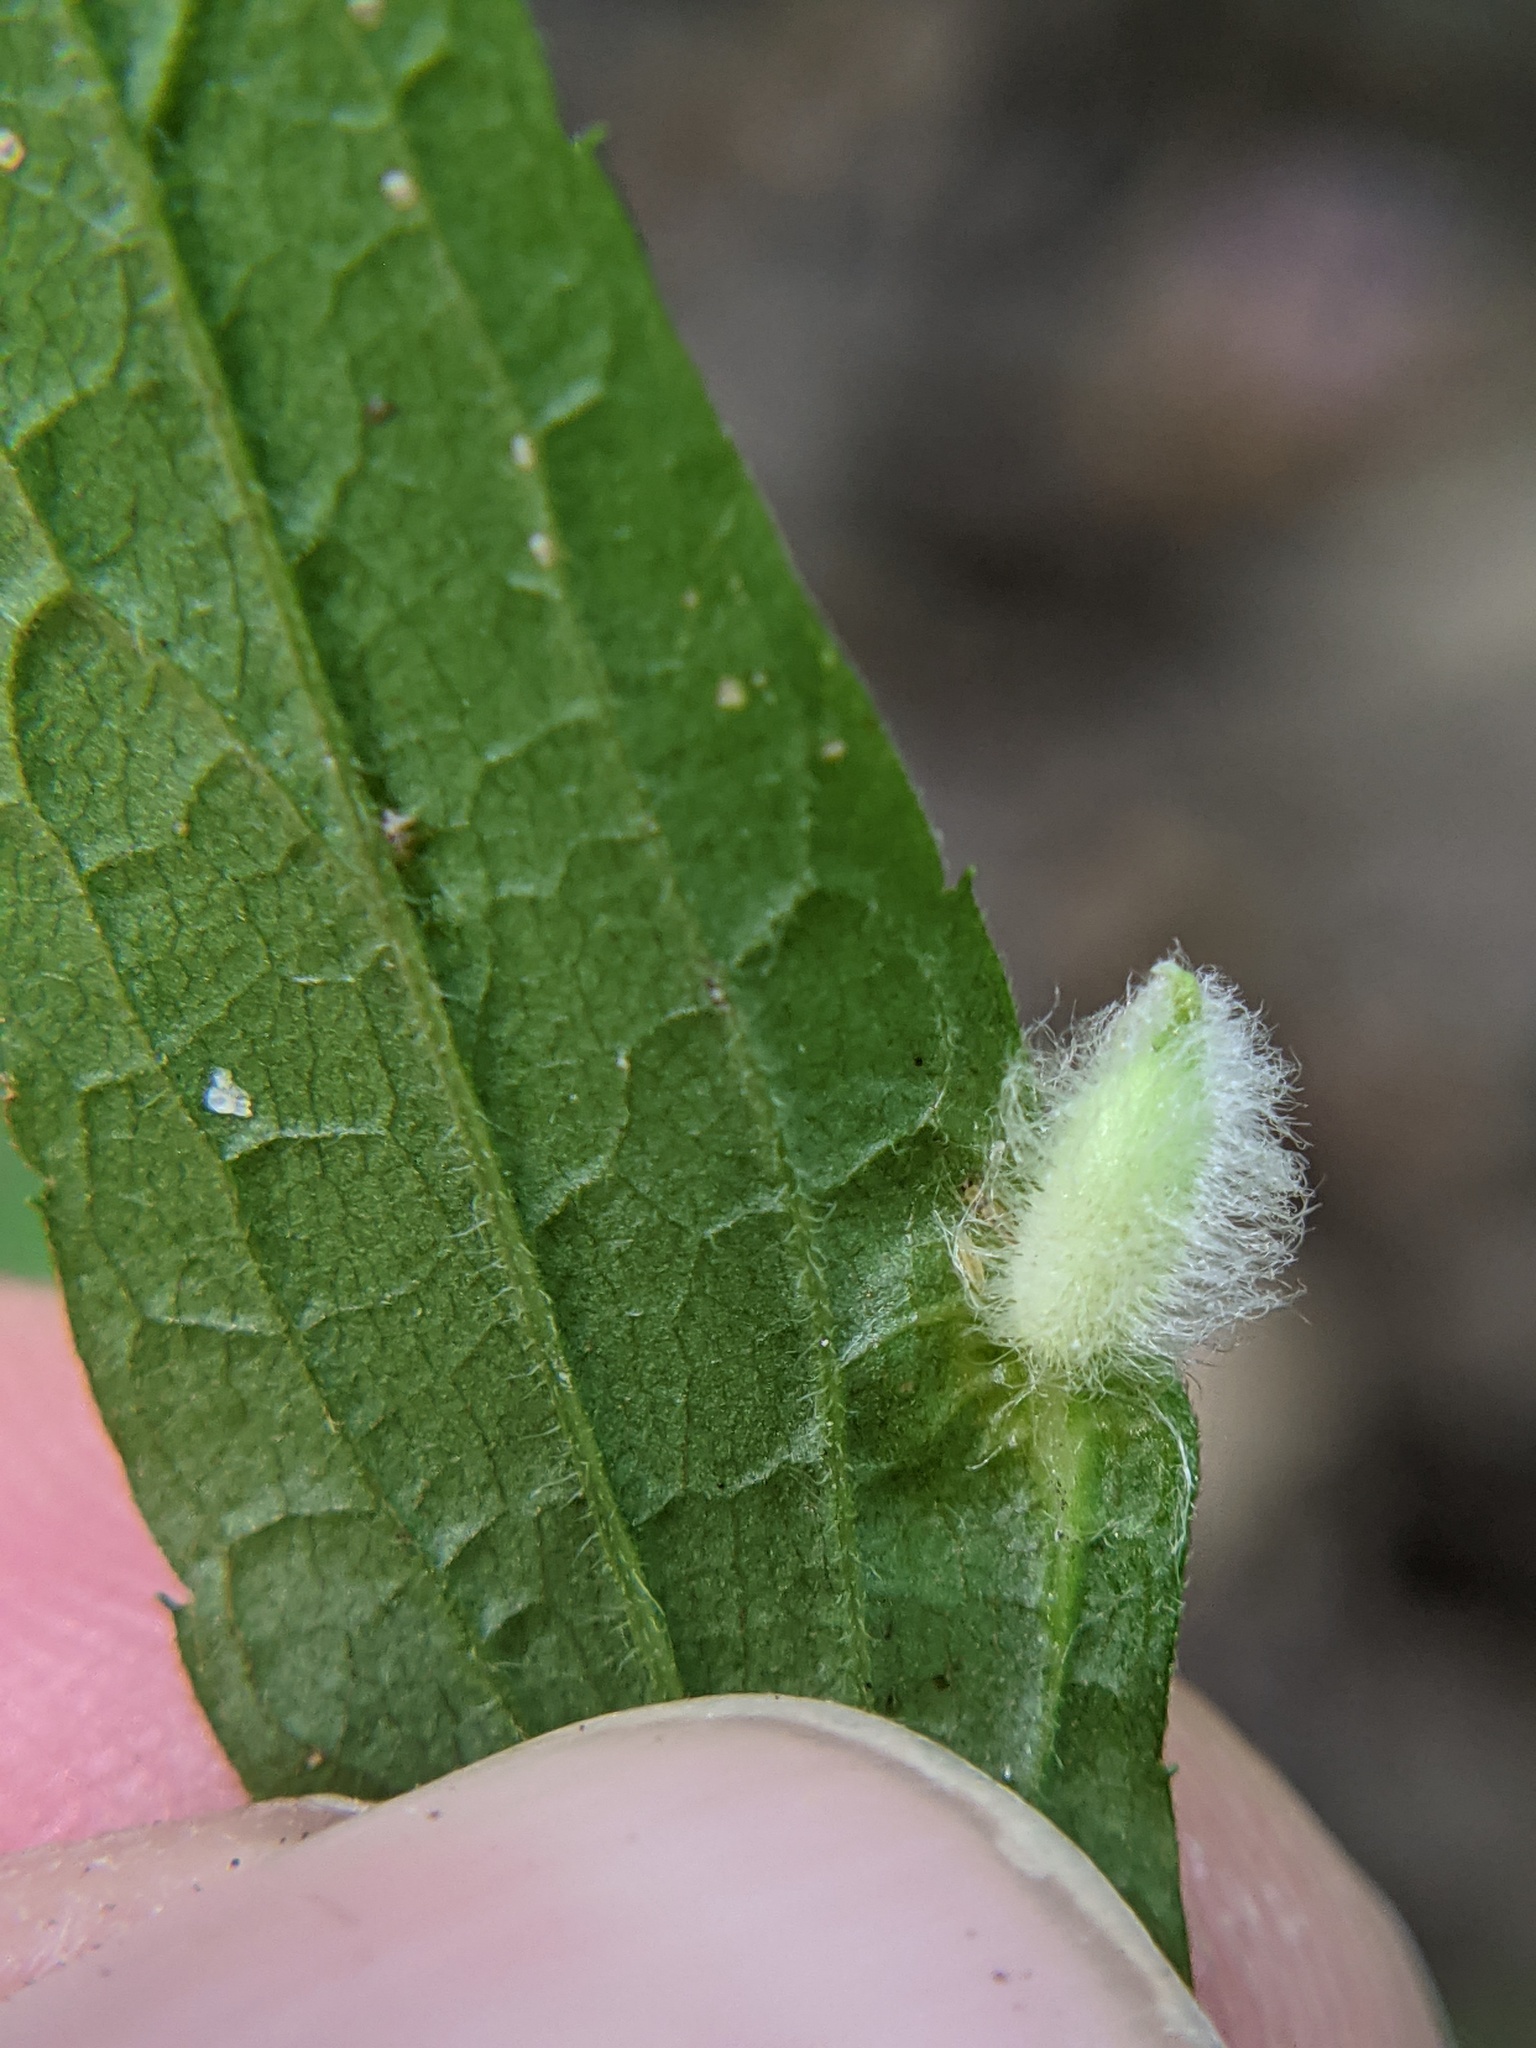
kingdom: Animalia
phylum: Arthropoda
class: Insecta
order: Diptera
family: Cecidomyiidae
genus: Rhopalomyia
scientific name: Rhopalomyia clarkei
